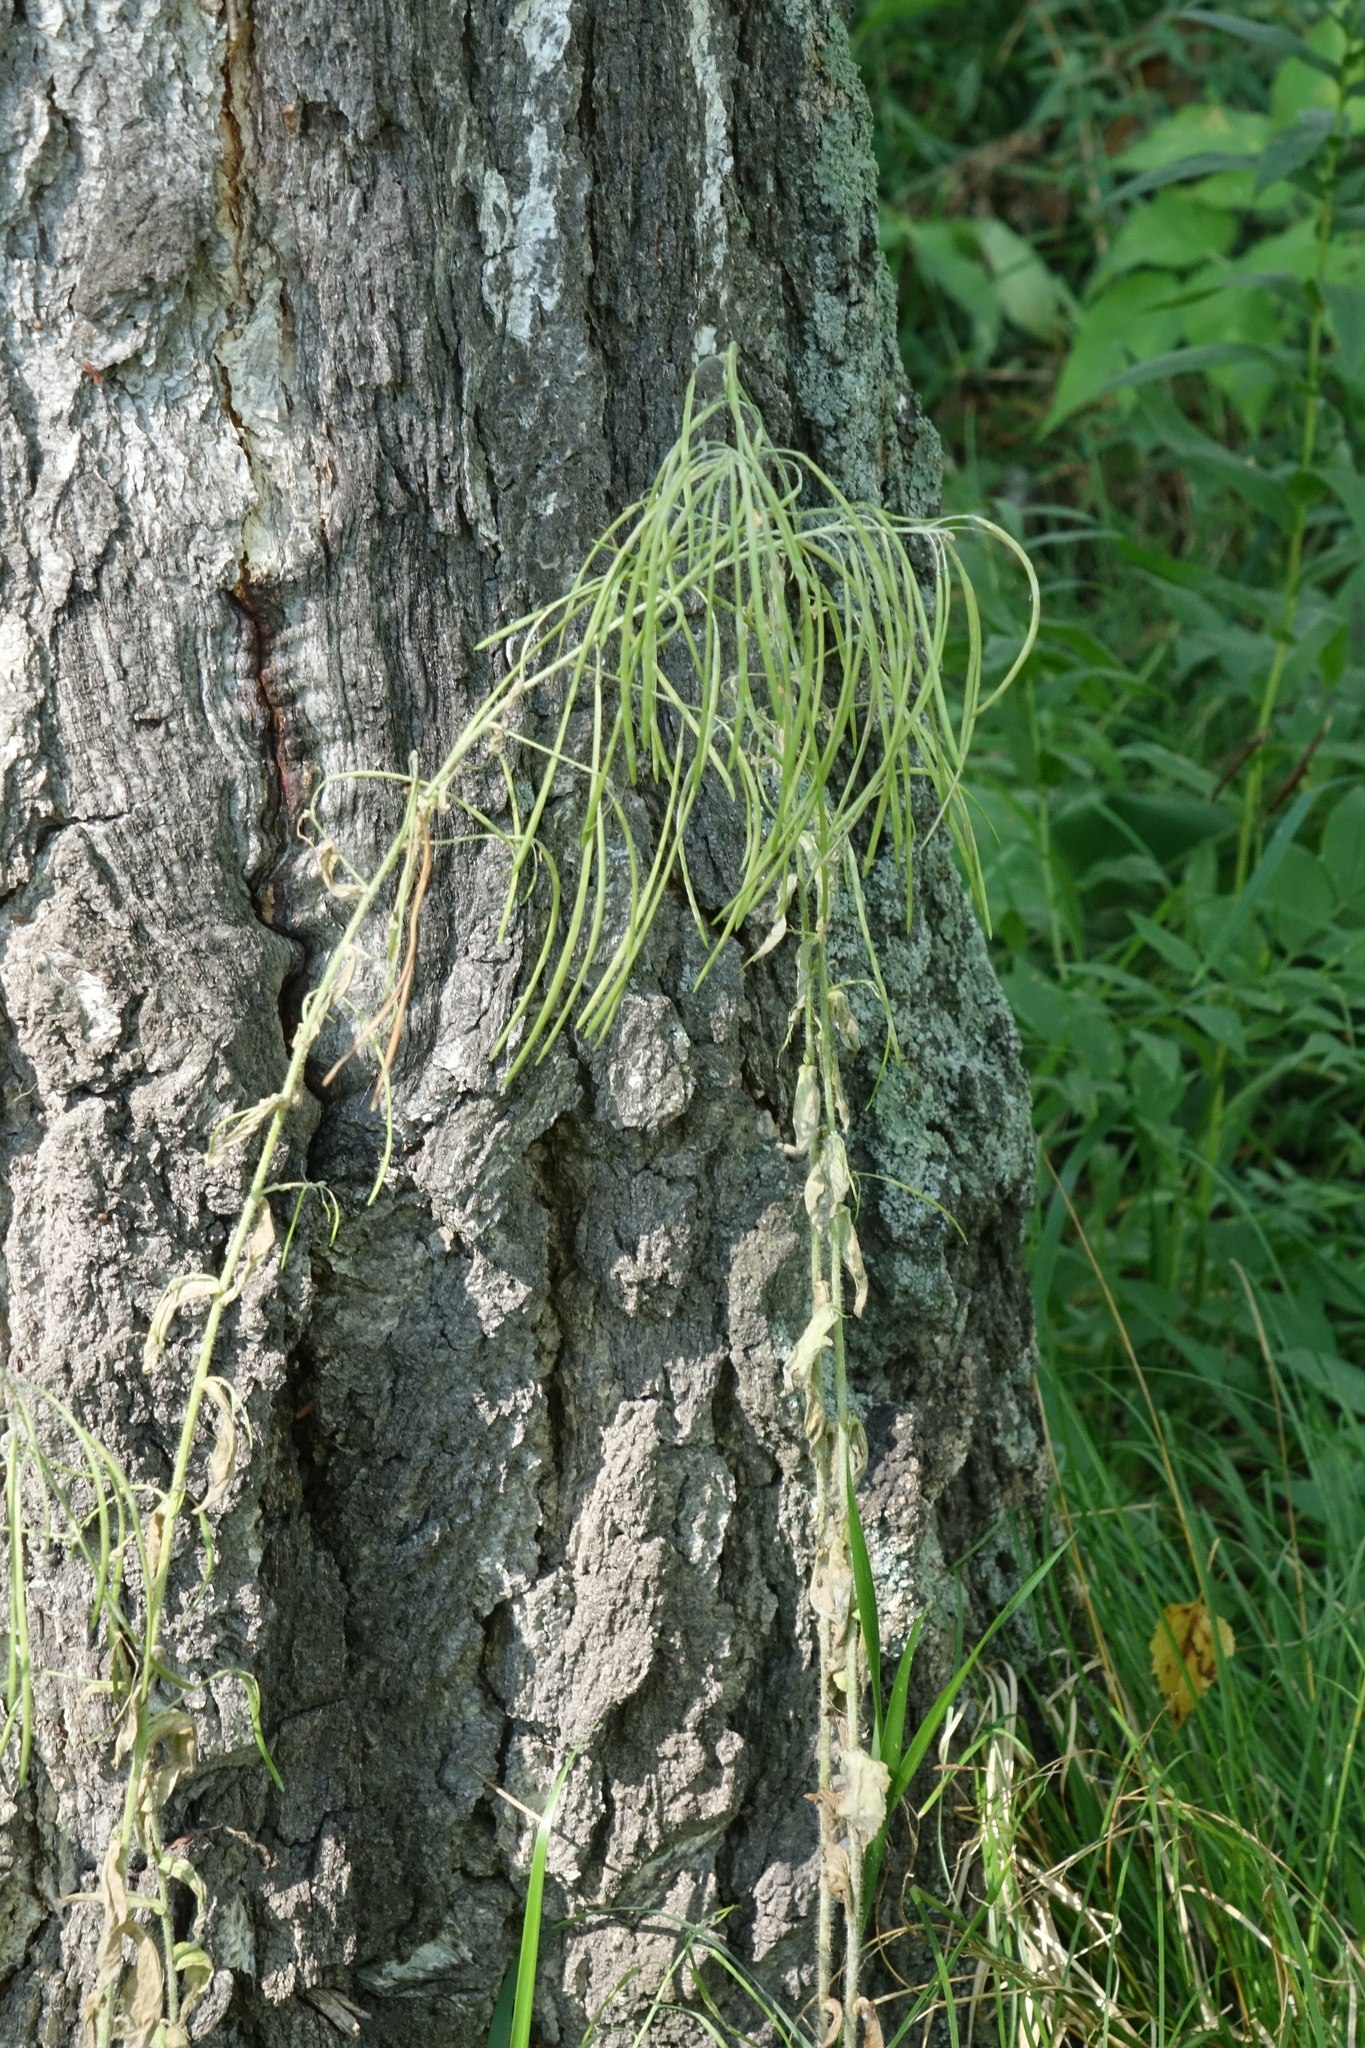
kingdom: Plantae
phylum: Tracheophyta
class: Magnoliopsida
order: Brassicales
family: Brassicaceae
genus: Catolobus
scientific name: Catolobus pendulus
